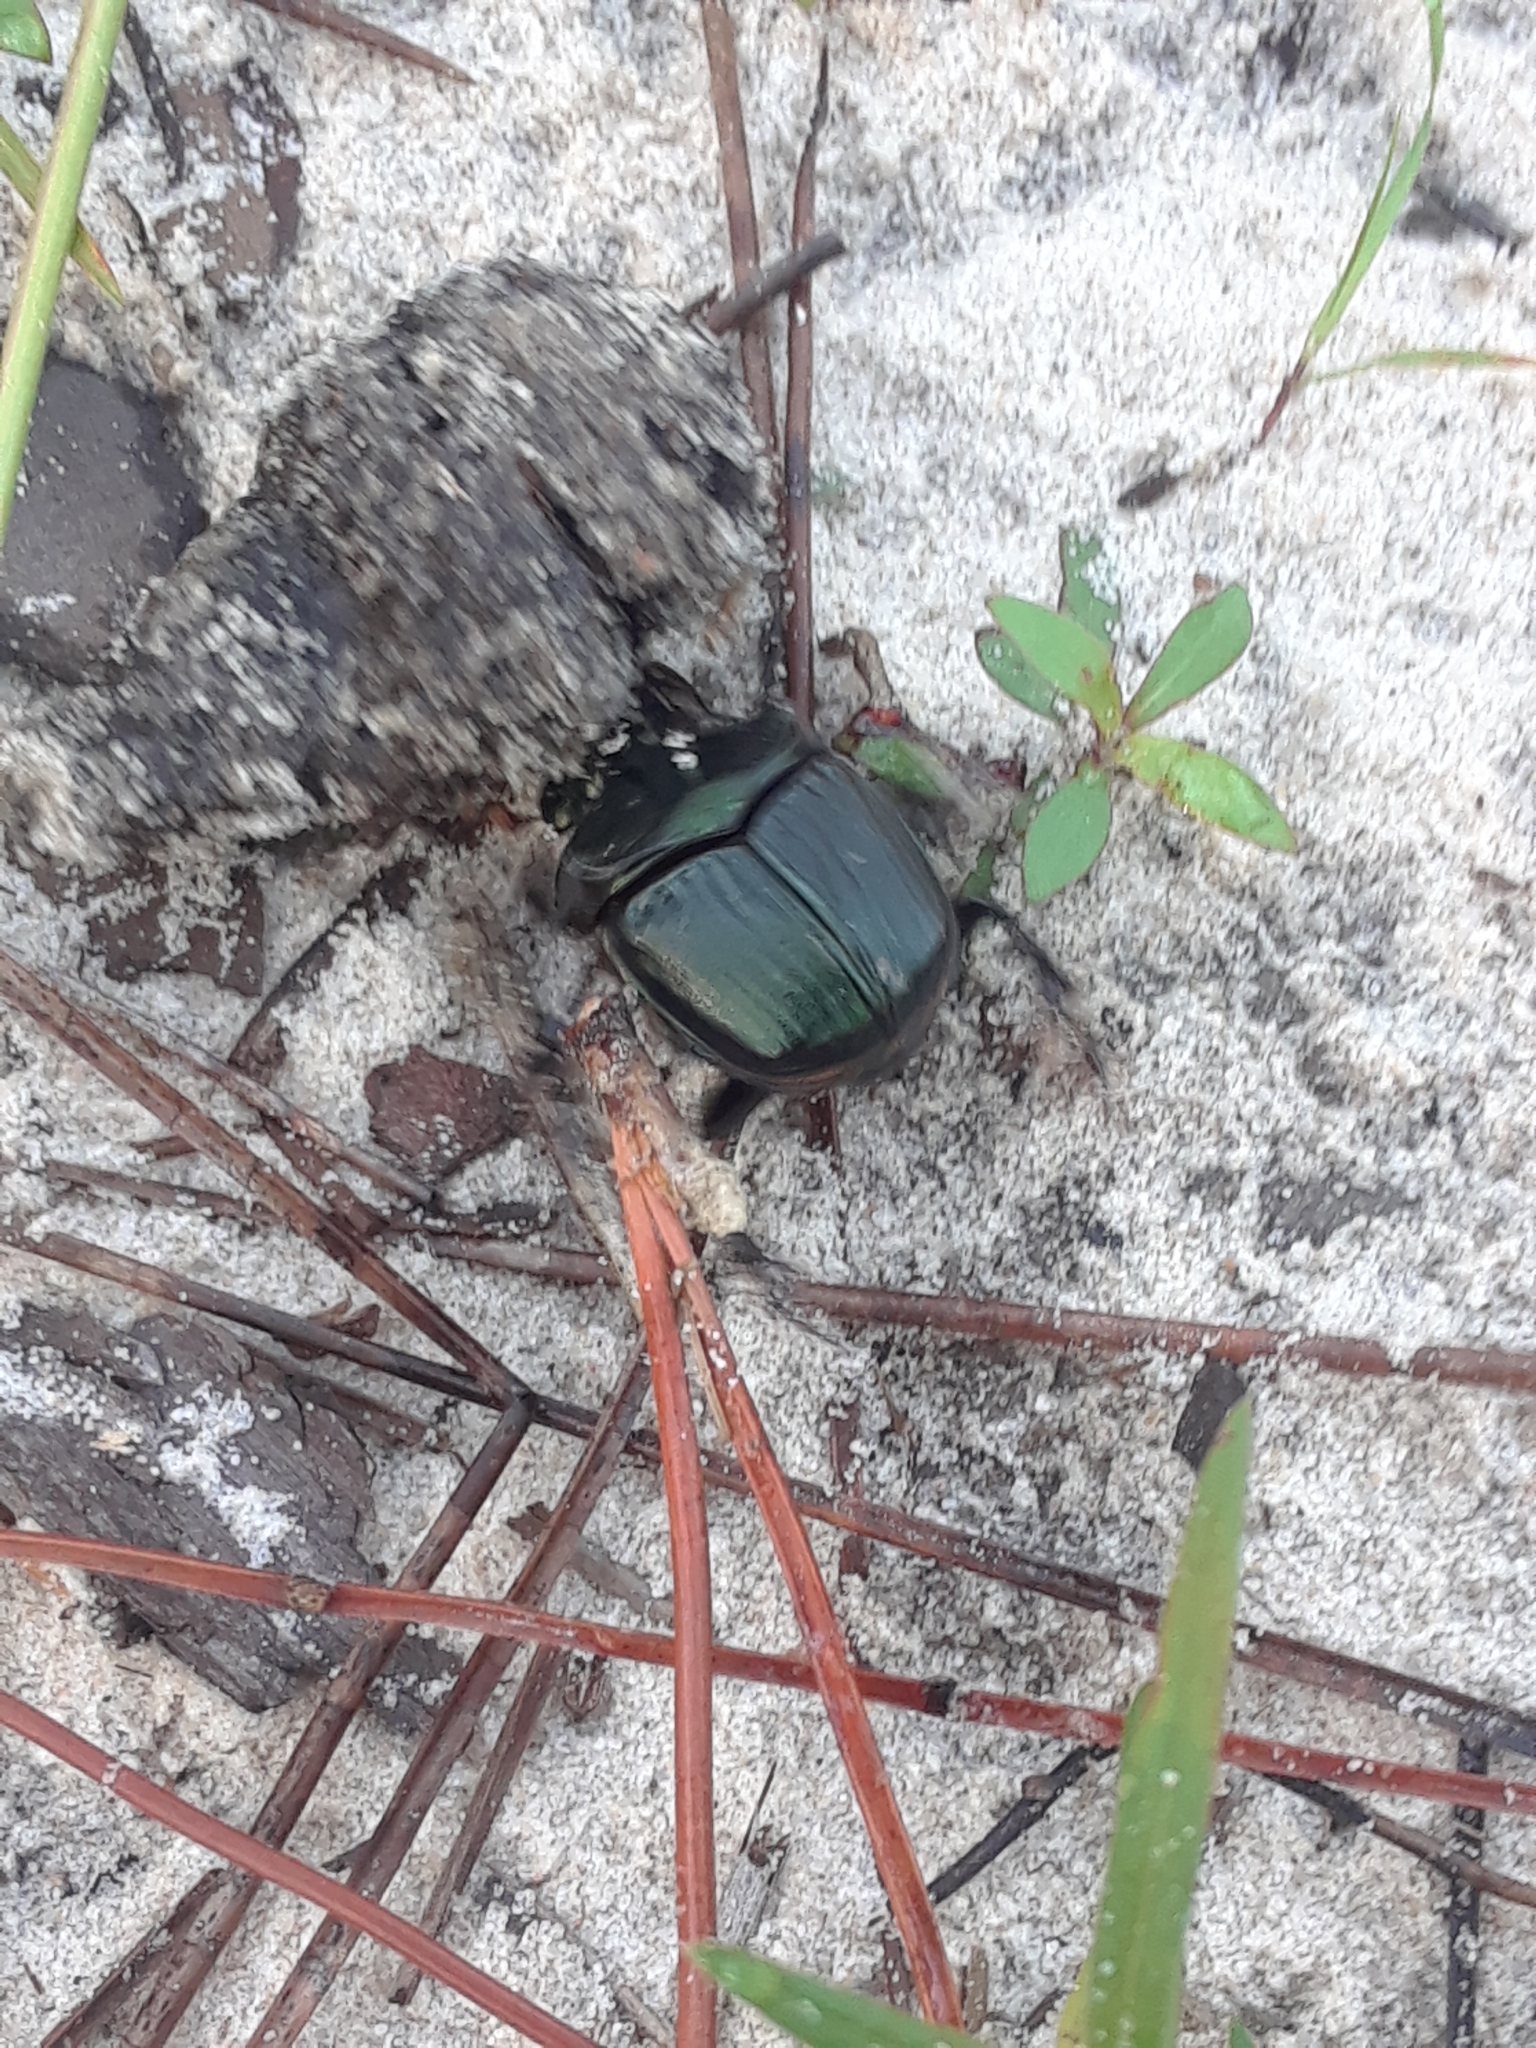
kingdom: Animalia
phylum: Arthropoda
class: Insecta
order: Coleoptera
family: Scarabaeidae
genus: Phanaeus
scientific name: Phanaeus igneus
